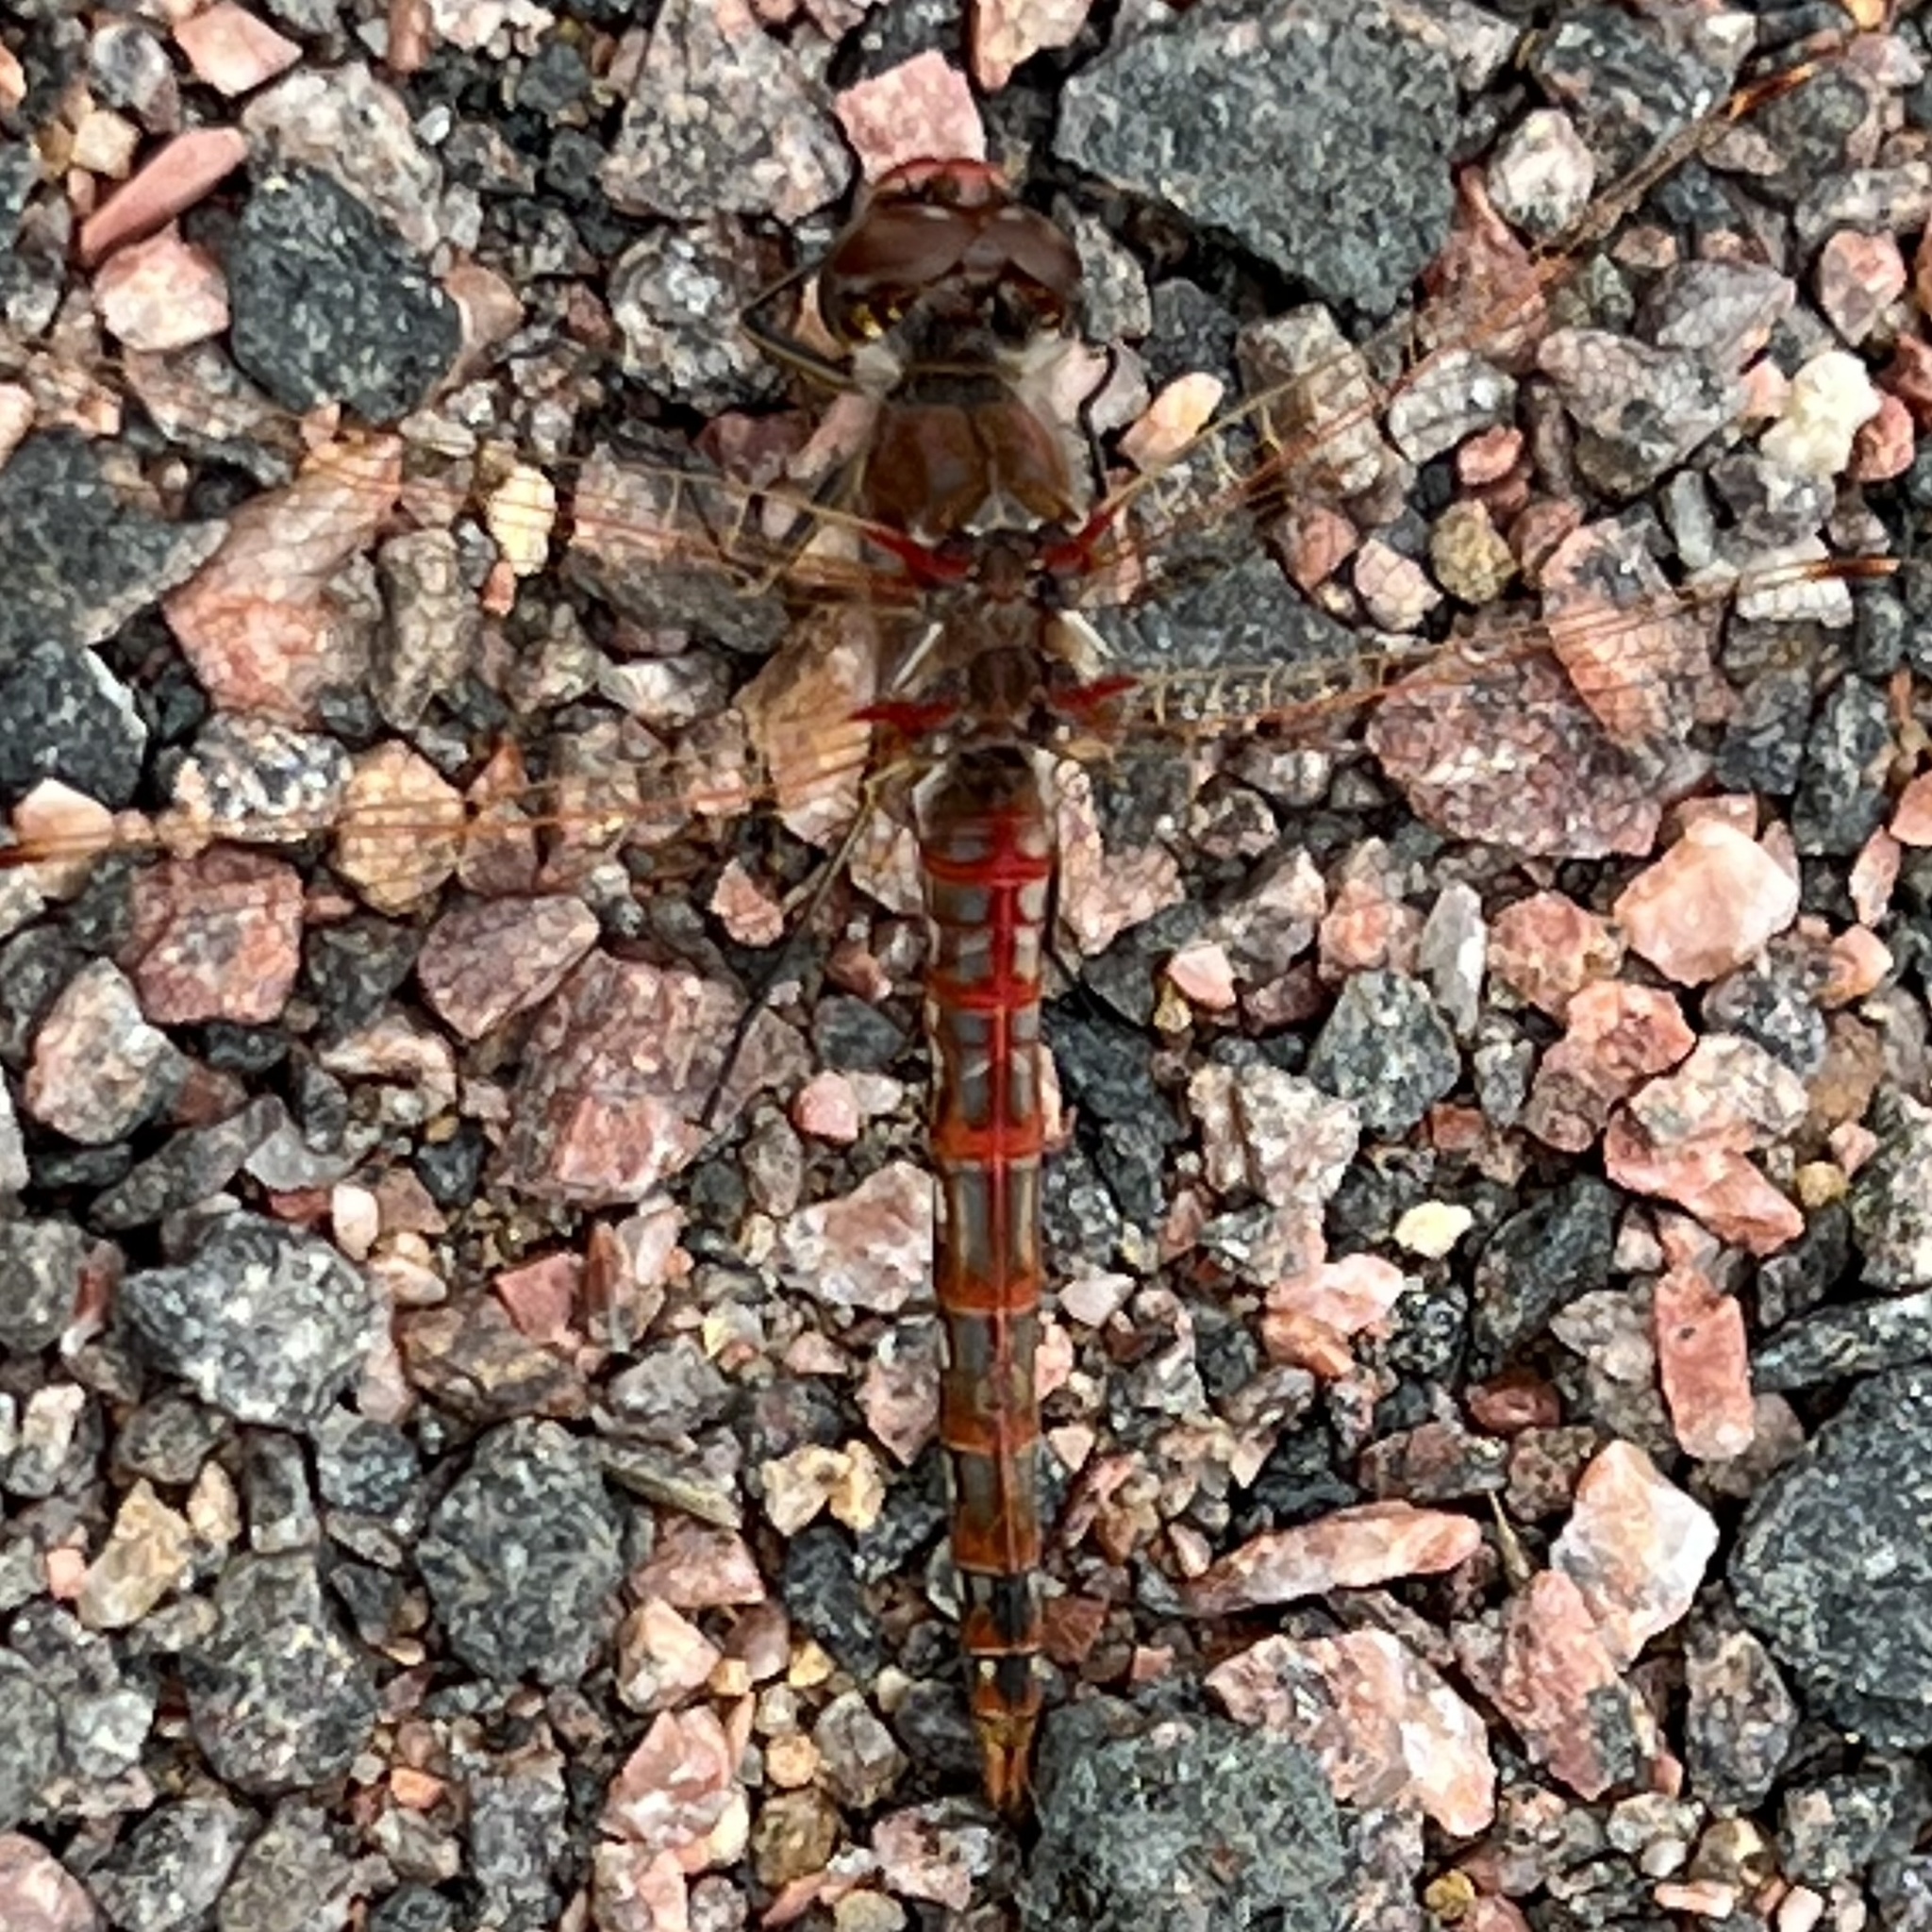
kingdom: Animalia
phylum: Arthropoda
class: Insecta
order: Odonata
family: Libellulidae
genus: Sympetrum
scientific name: Sympetrum corruptum
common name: Variegated meadowhawk
